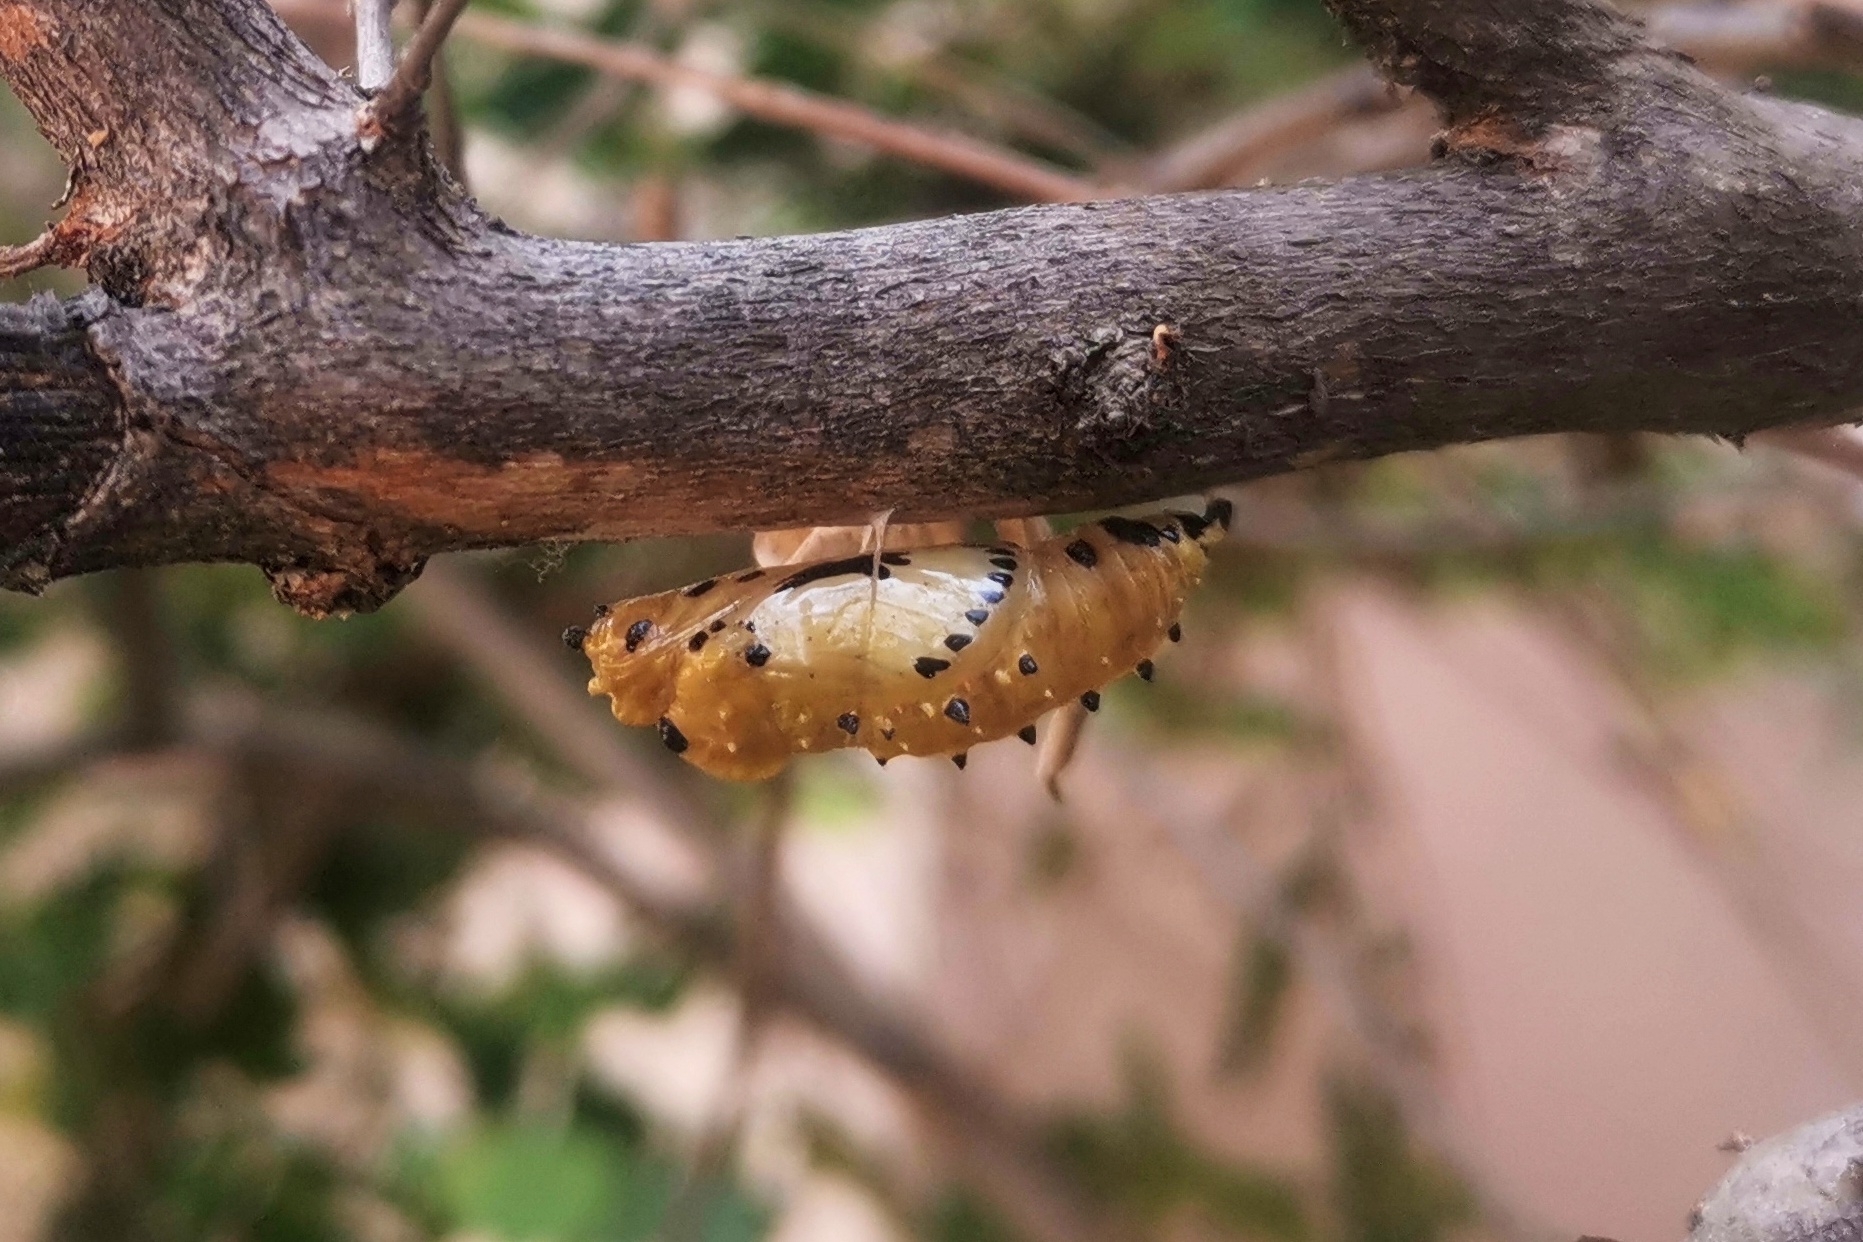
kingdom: Animalia
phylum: Arthropoda
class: Insecta
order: Lepidoptera
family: Pieridae
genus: Delias
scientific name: Delias eucharis
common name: Common jezebel
